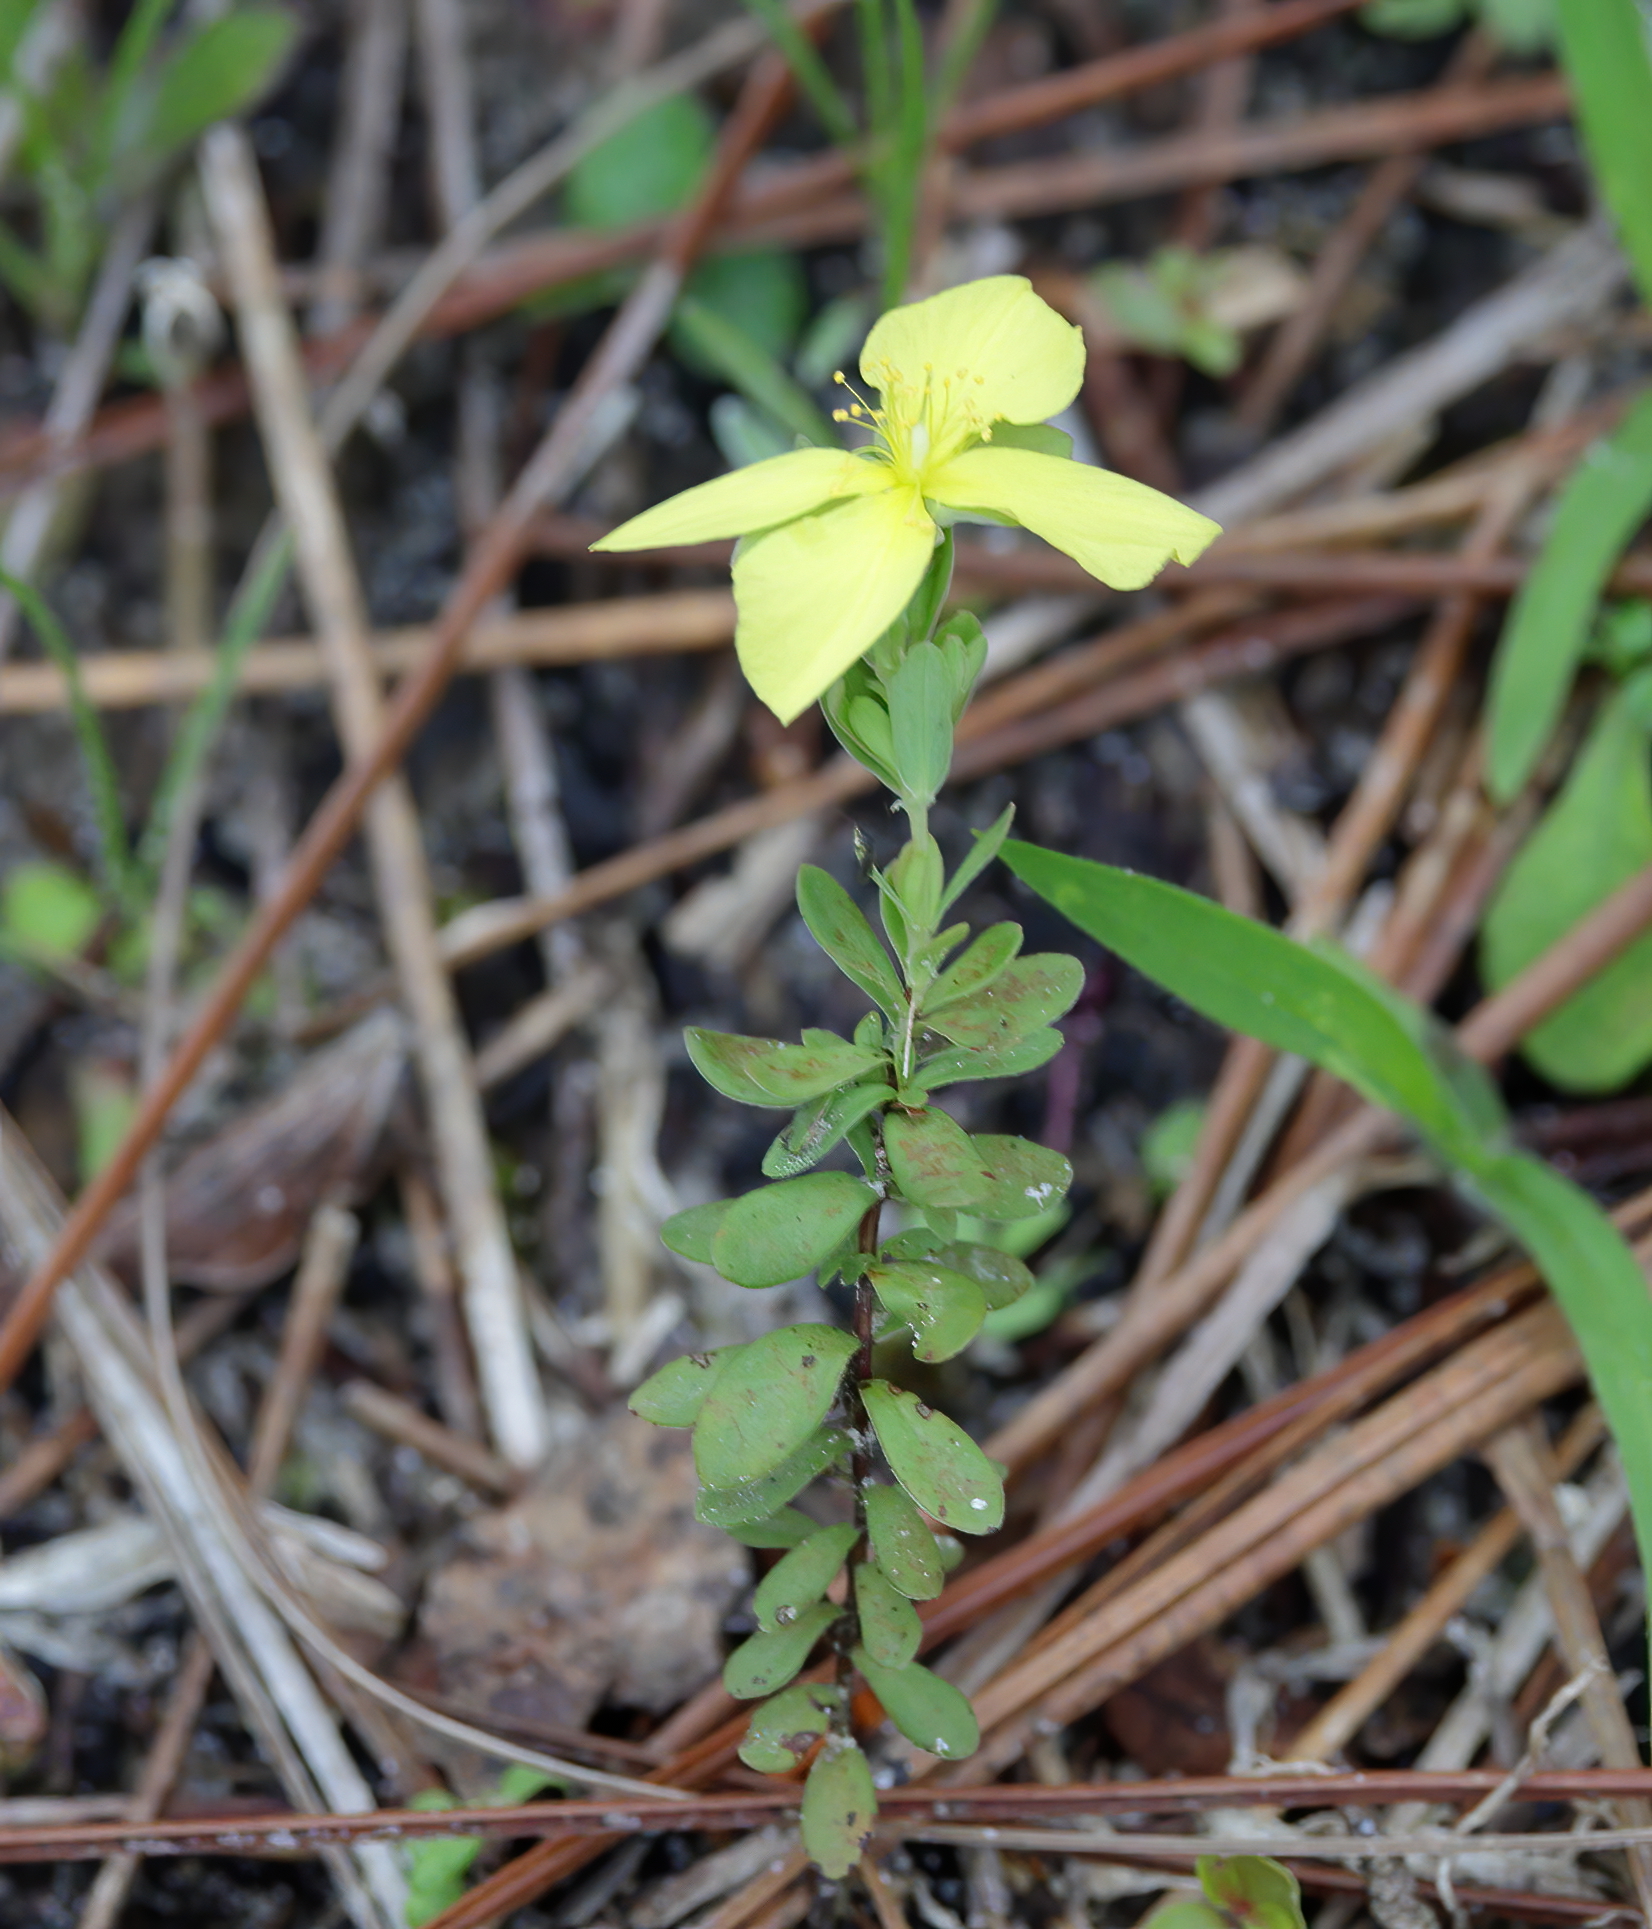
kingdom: Plantae
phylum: Tracheophyta
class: Magnoliopsida
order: Malpighiales
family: Hypericaceae
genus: Hypericum
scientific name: Hypericum suffruticosum
